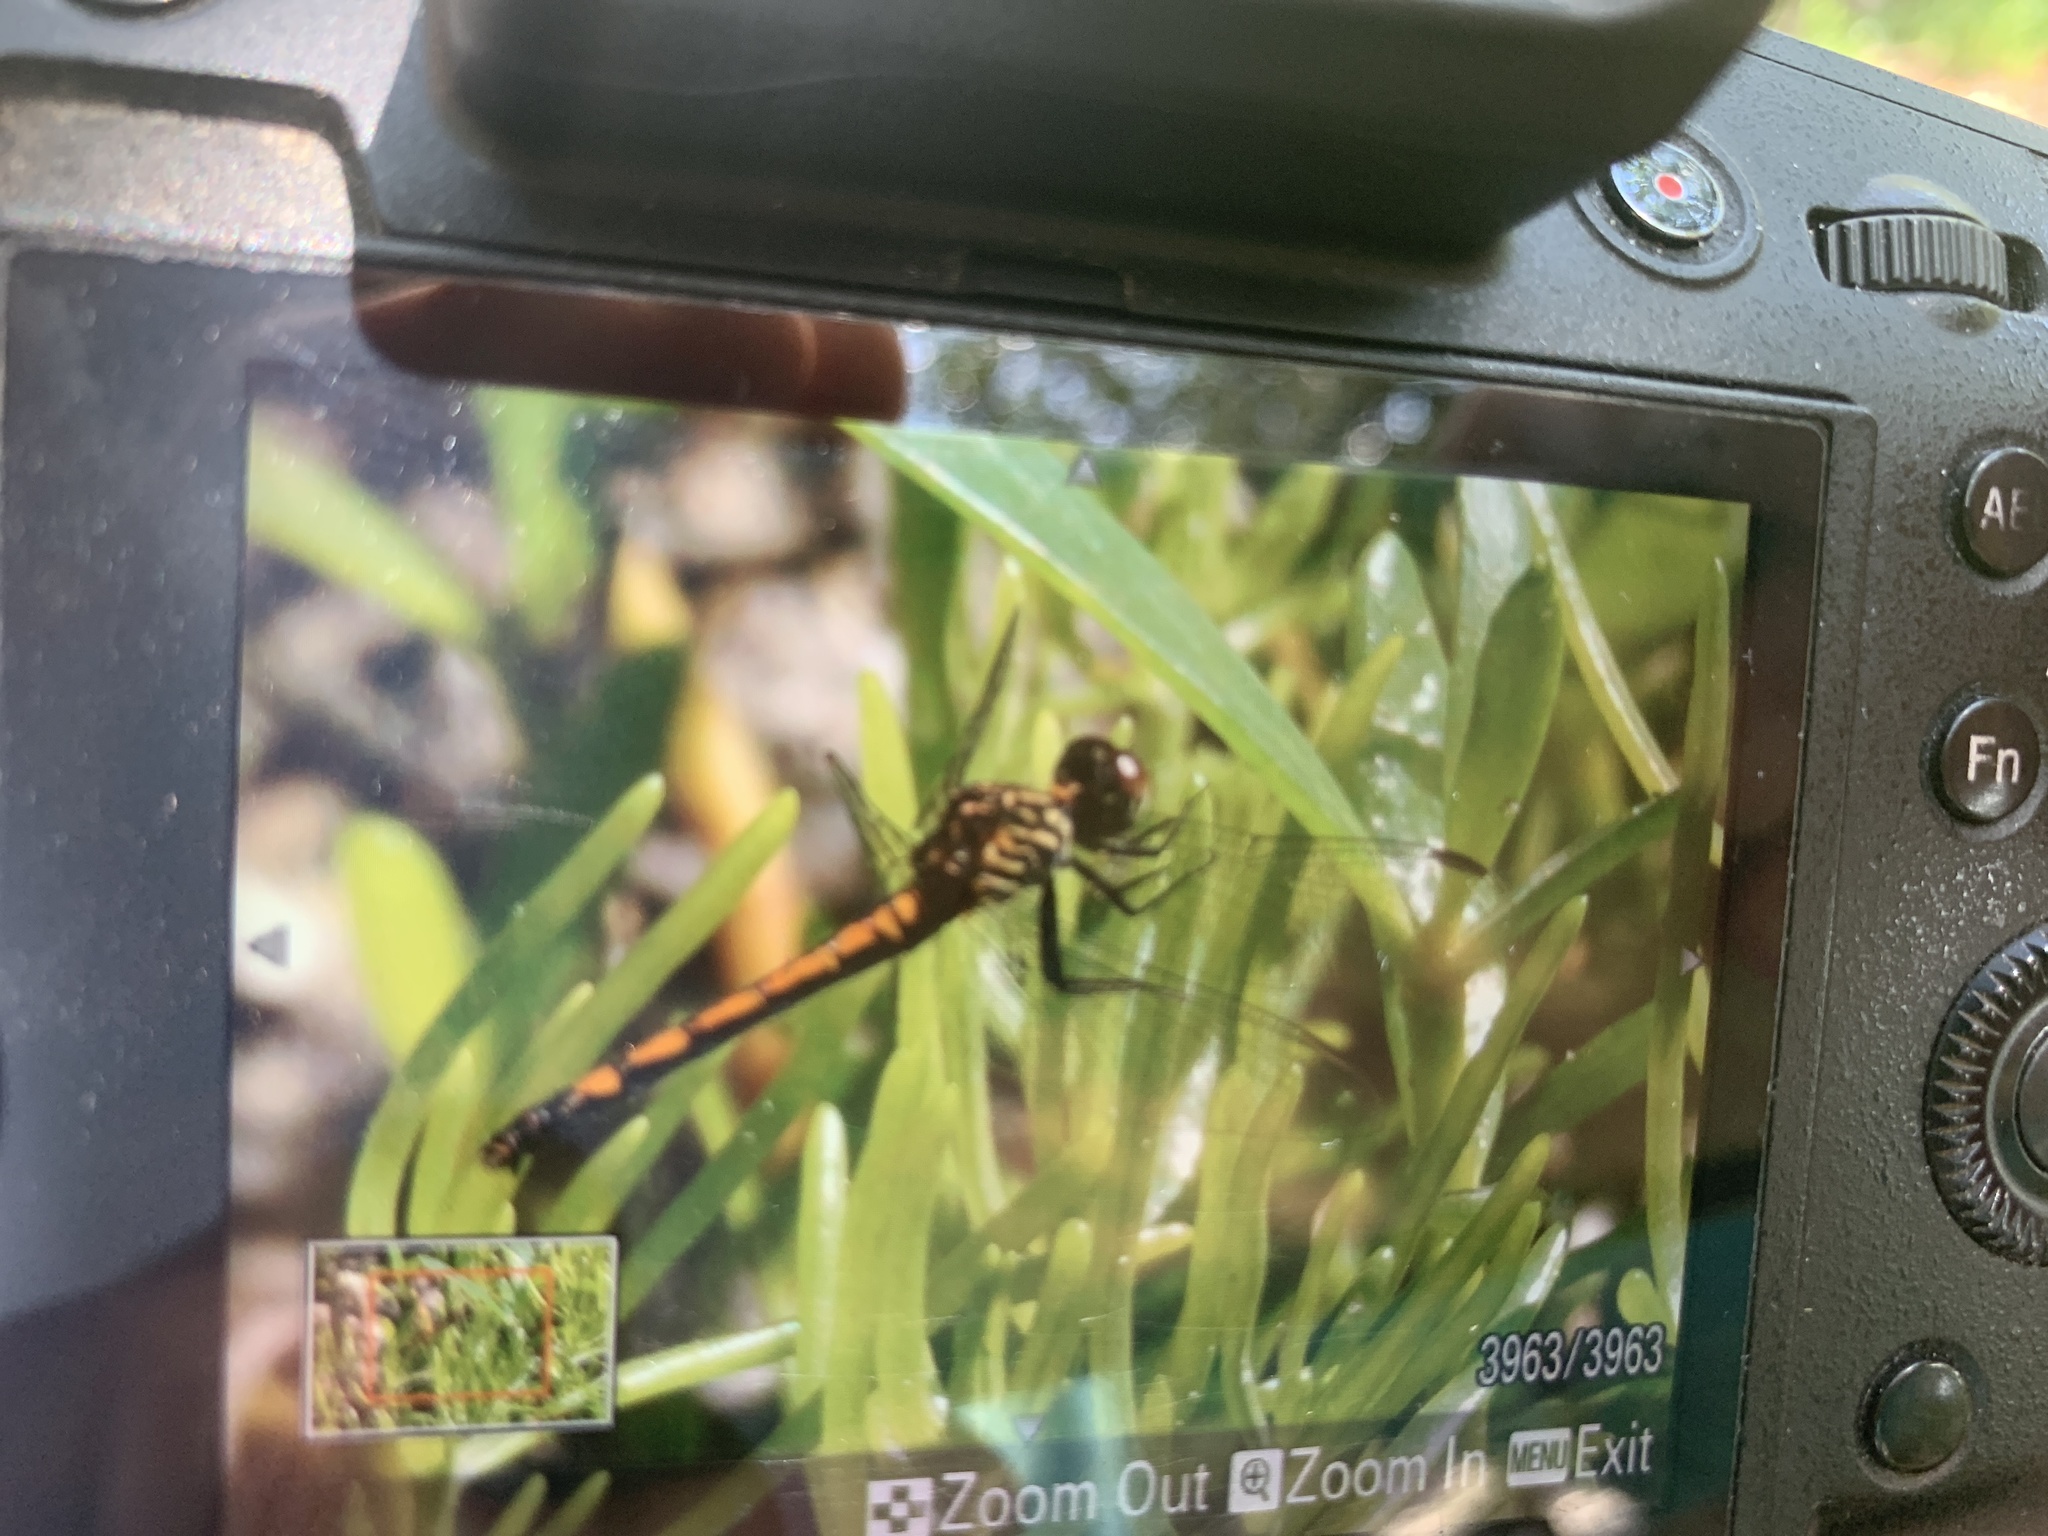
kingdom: Animalia
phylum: Arthropoda
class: Insecta
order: Odonata
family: Libellulidae
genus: Erythrodiplax
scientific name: Erythrodiplax berenice
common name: Seaside dragonlet
